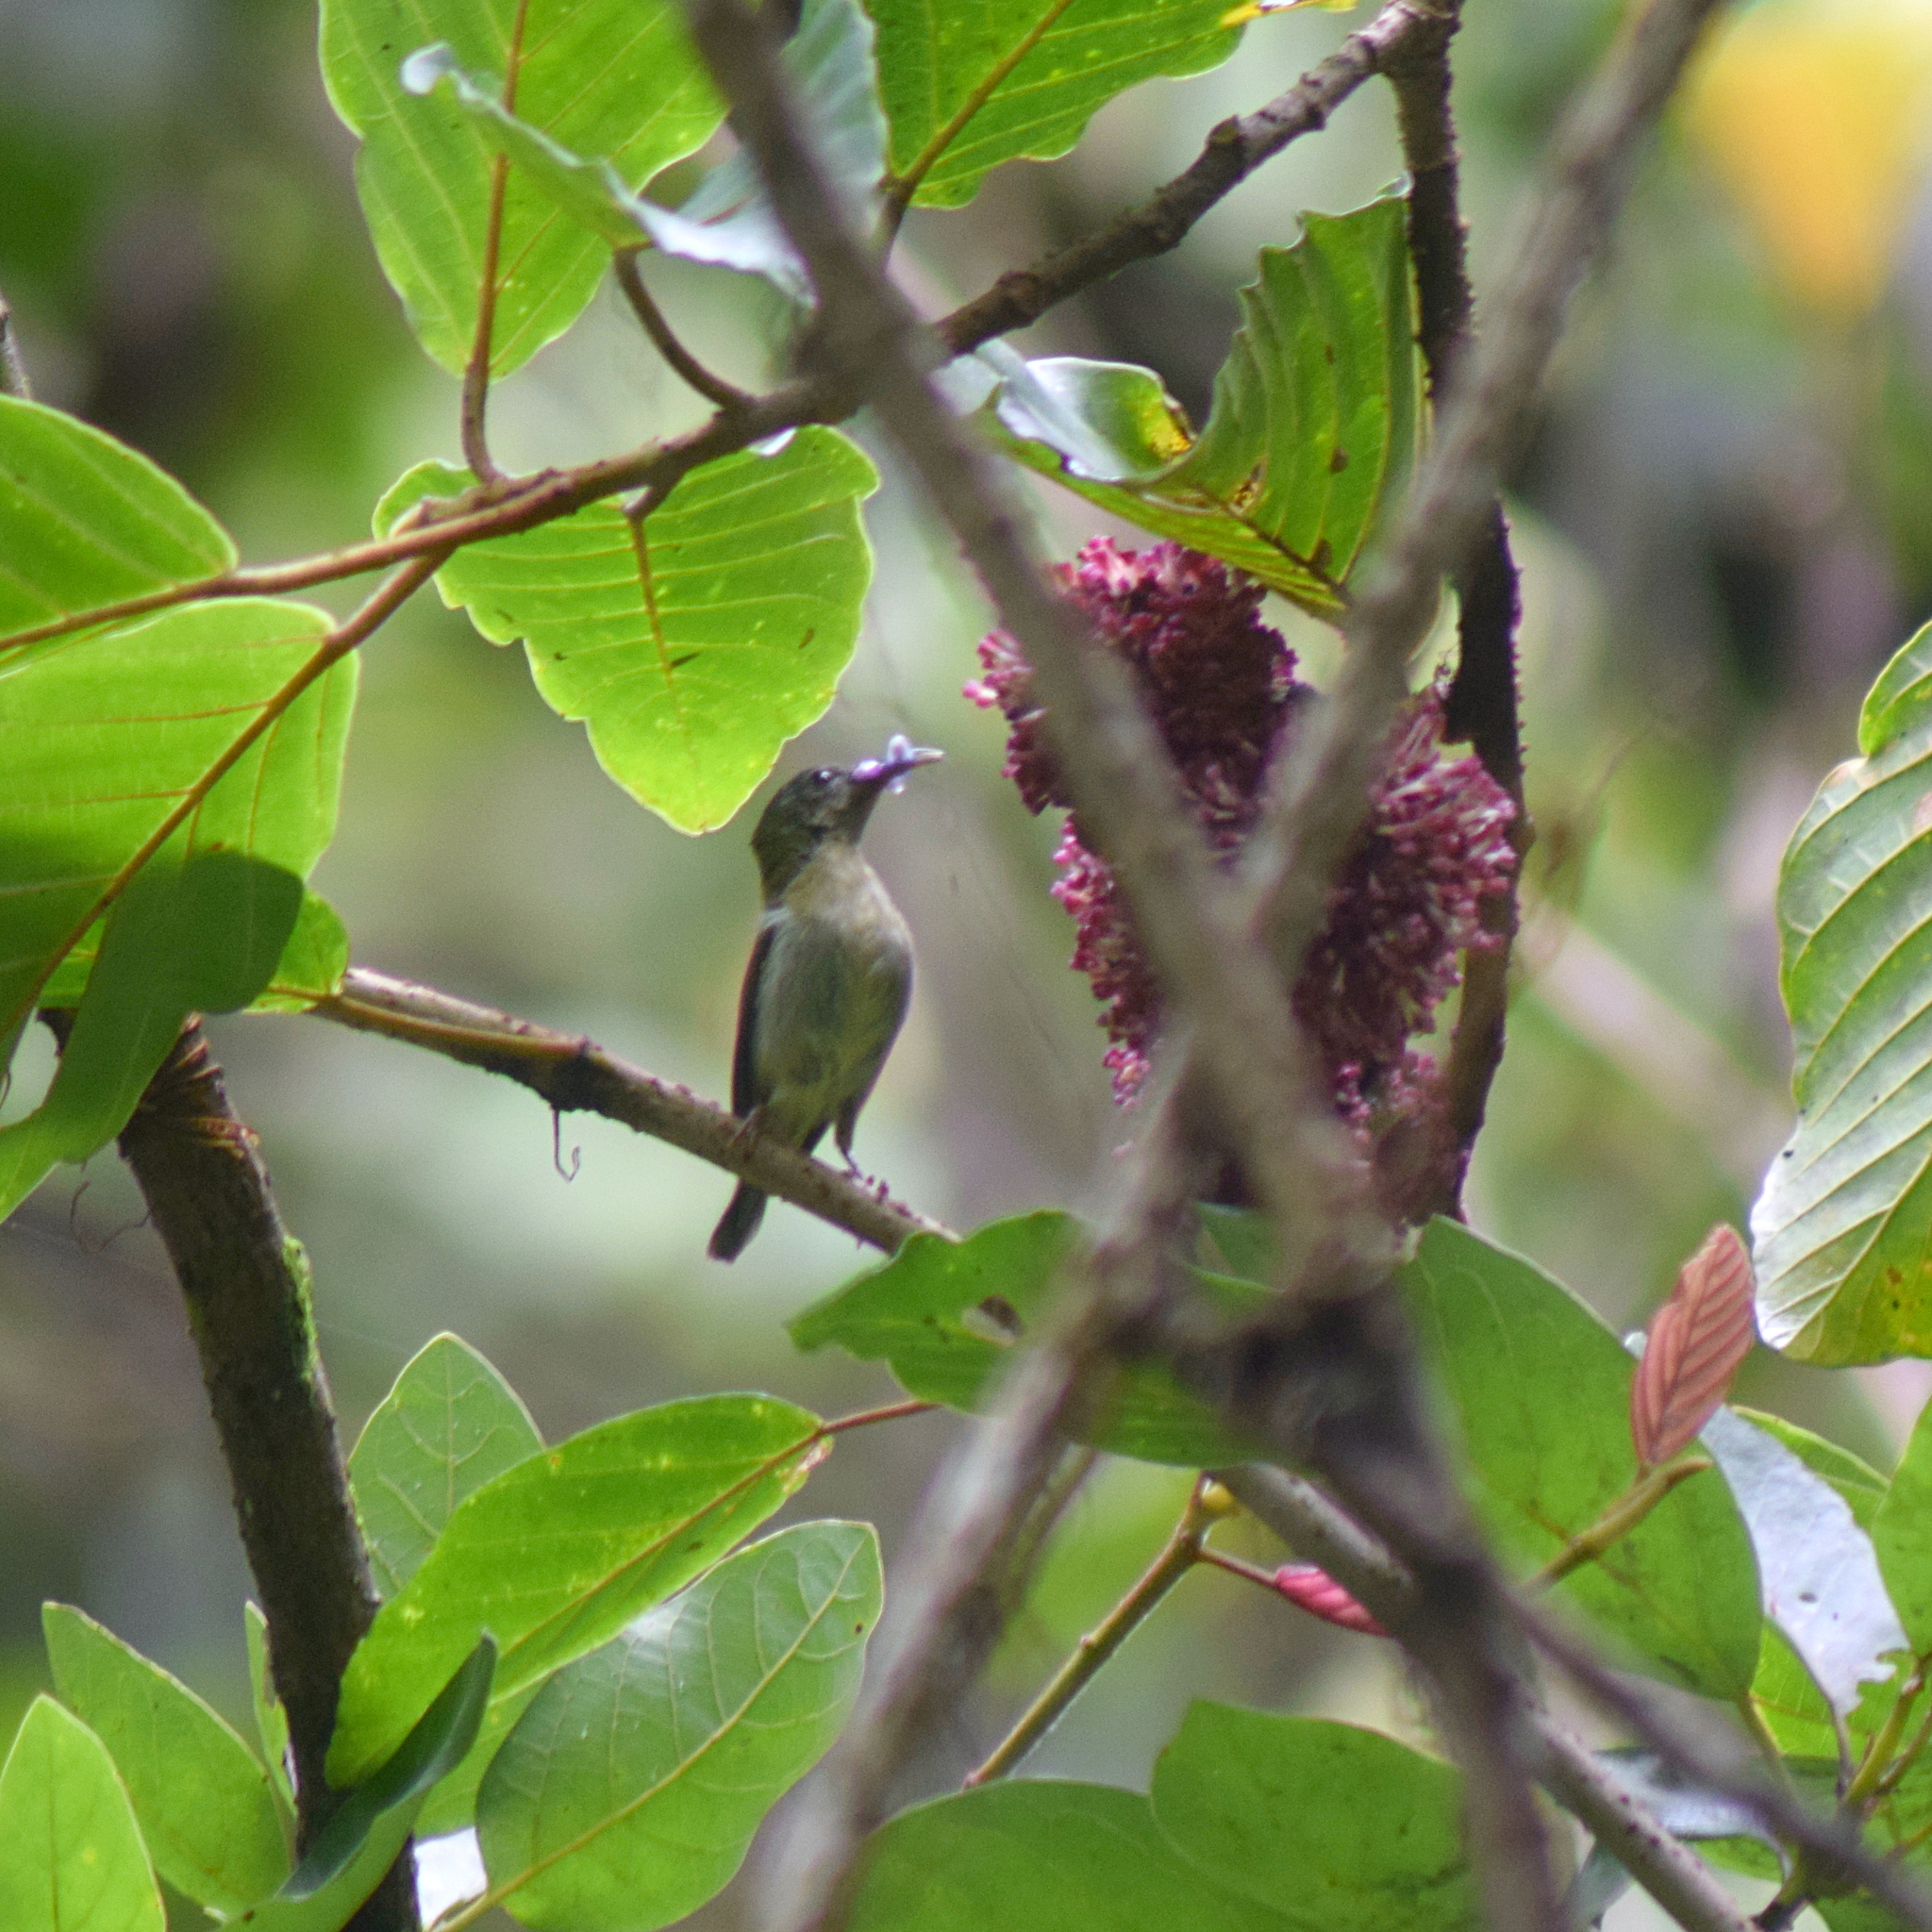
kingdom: Animalia
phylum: Chordata
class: Aves
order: Passeriformes
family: Nectariniidae
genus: Aethopyga
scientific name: Aethopyga eximia
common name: White-flanked sunbird
